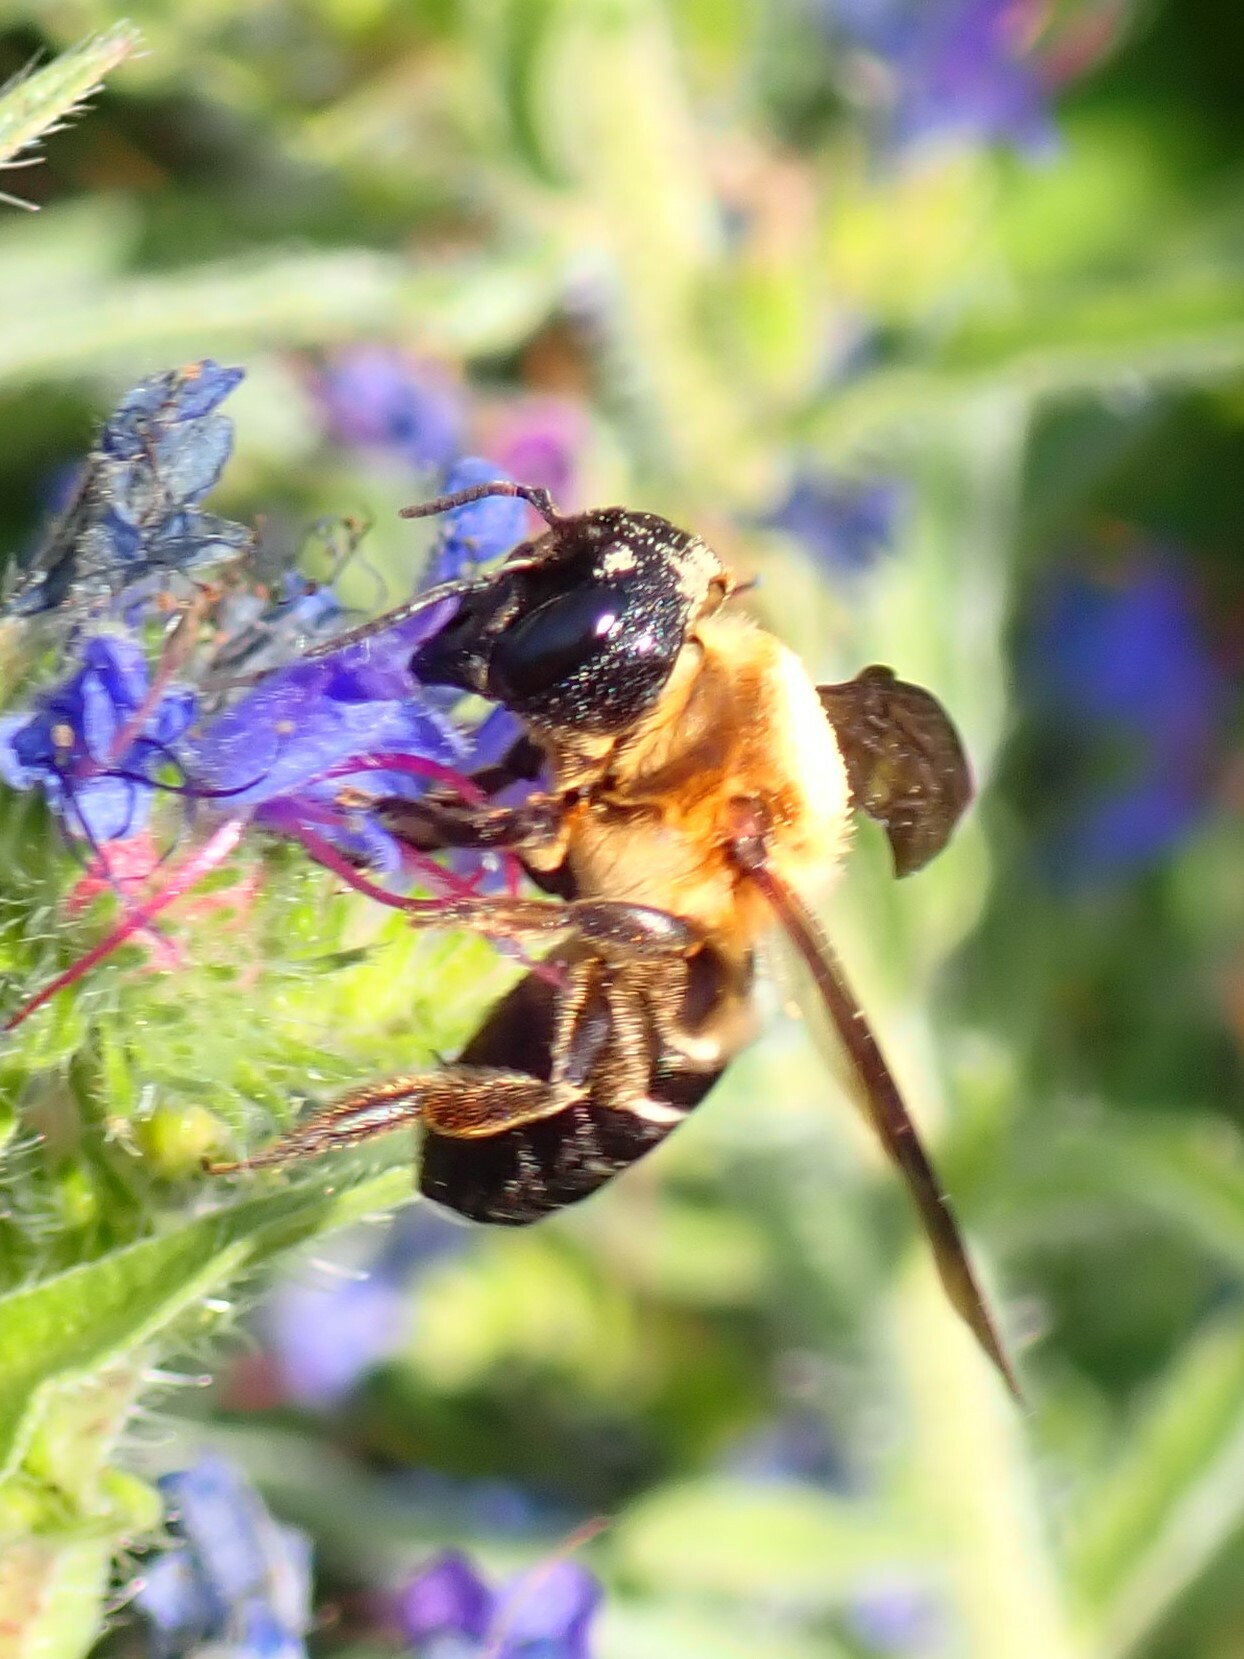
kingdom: Animalia
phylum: Arthropoda
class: Insecta
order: Hymenoptera
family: Megachilidae
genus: Megachile
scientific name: Megachile sculpturalis
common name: Sculptured resin bee
